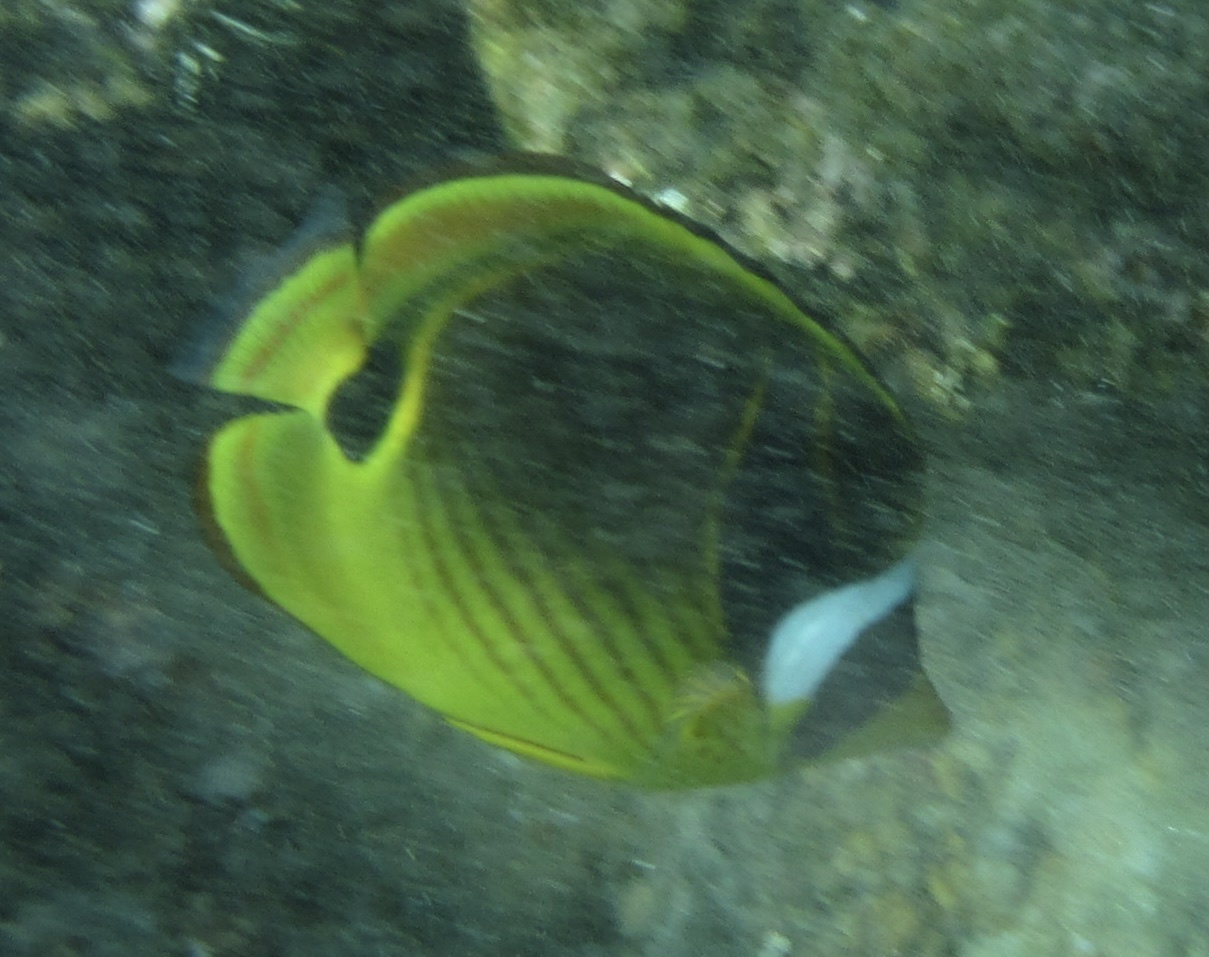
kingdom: Animalia
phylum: Chordata
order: Perciformes
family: Chaetodontidae
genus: Chaetodon
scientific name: Chaetodon lunula
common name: Raccoon butterflyfish
